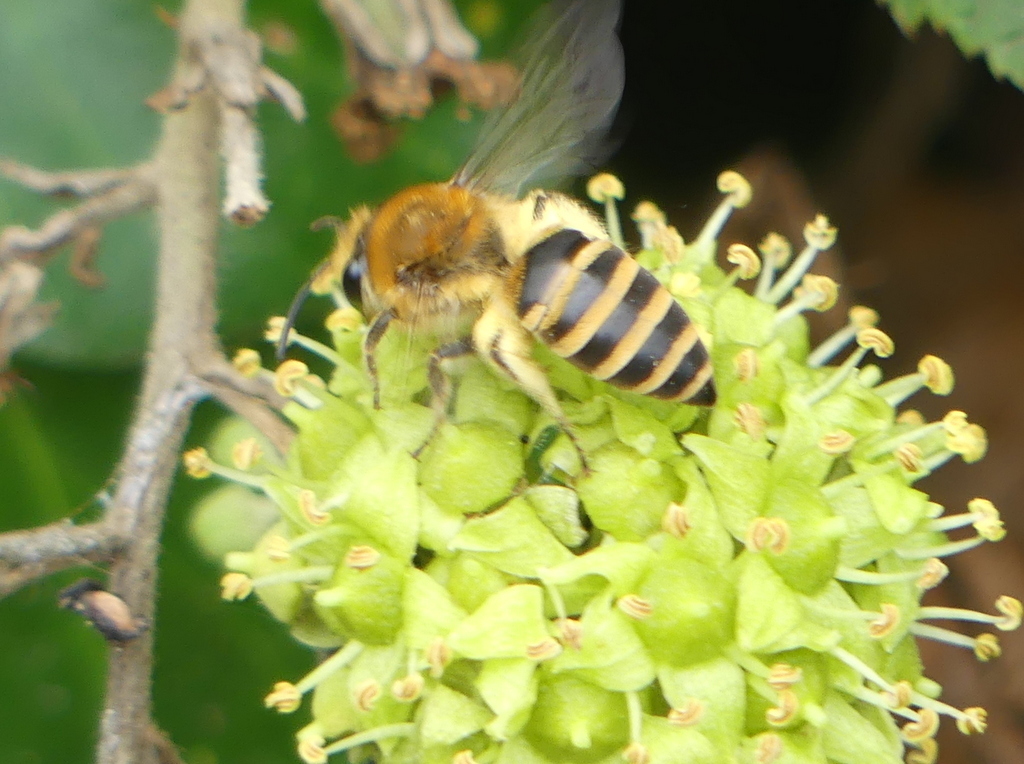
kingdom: Animalia
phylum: Arthropoda
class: Insecta
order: Hymenoptera
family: Colletidae
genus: Colletes
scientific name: Colletes hederae
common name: Ivy bee
